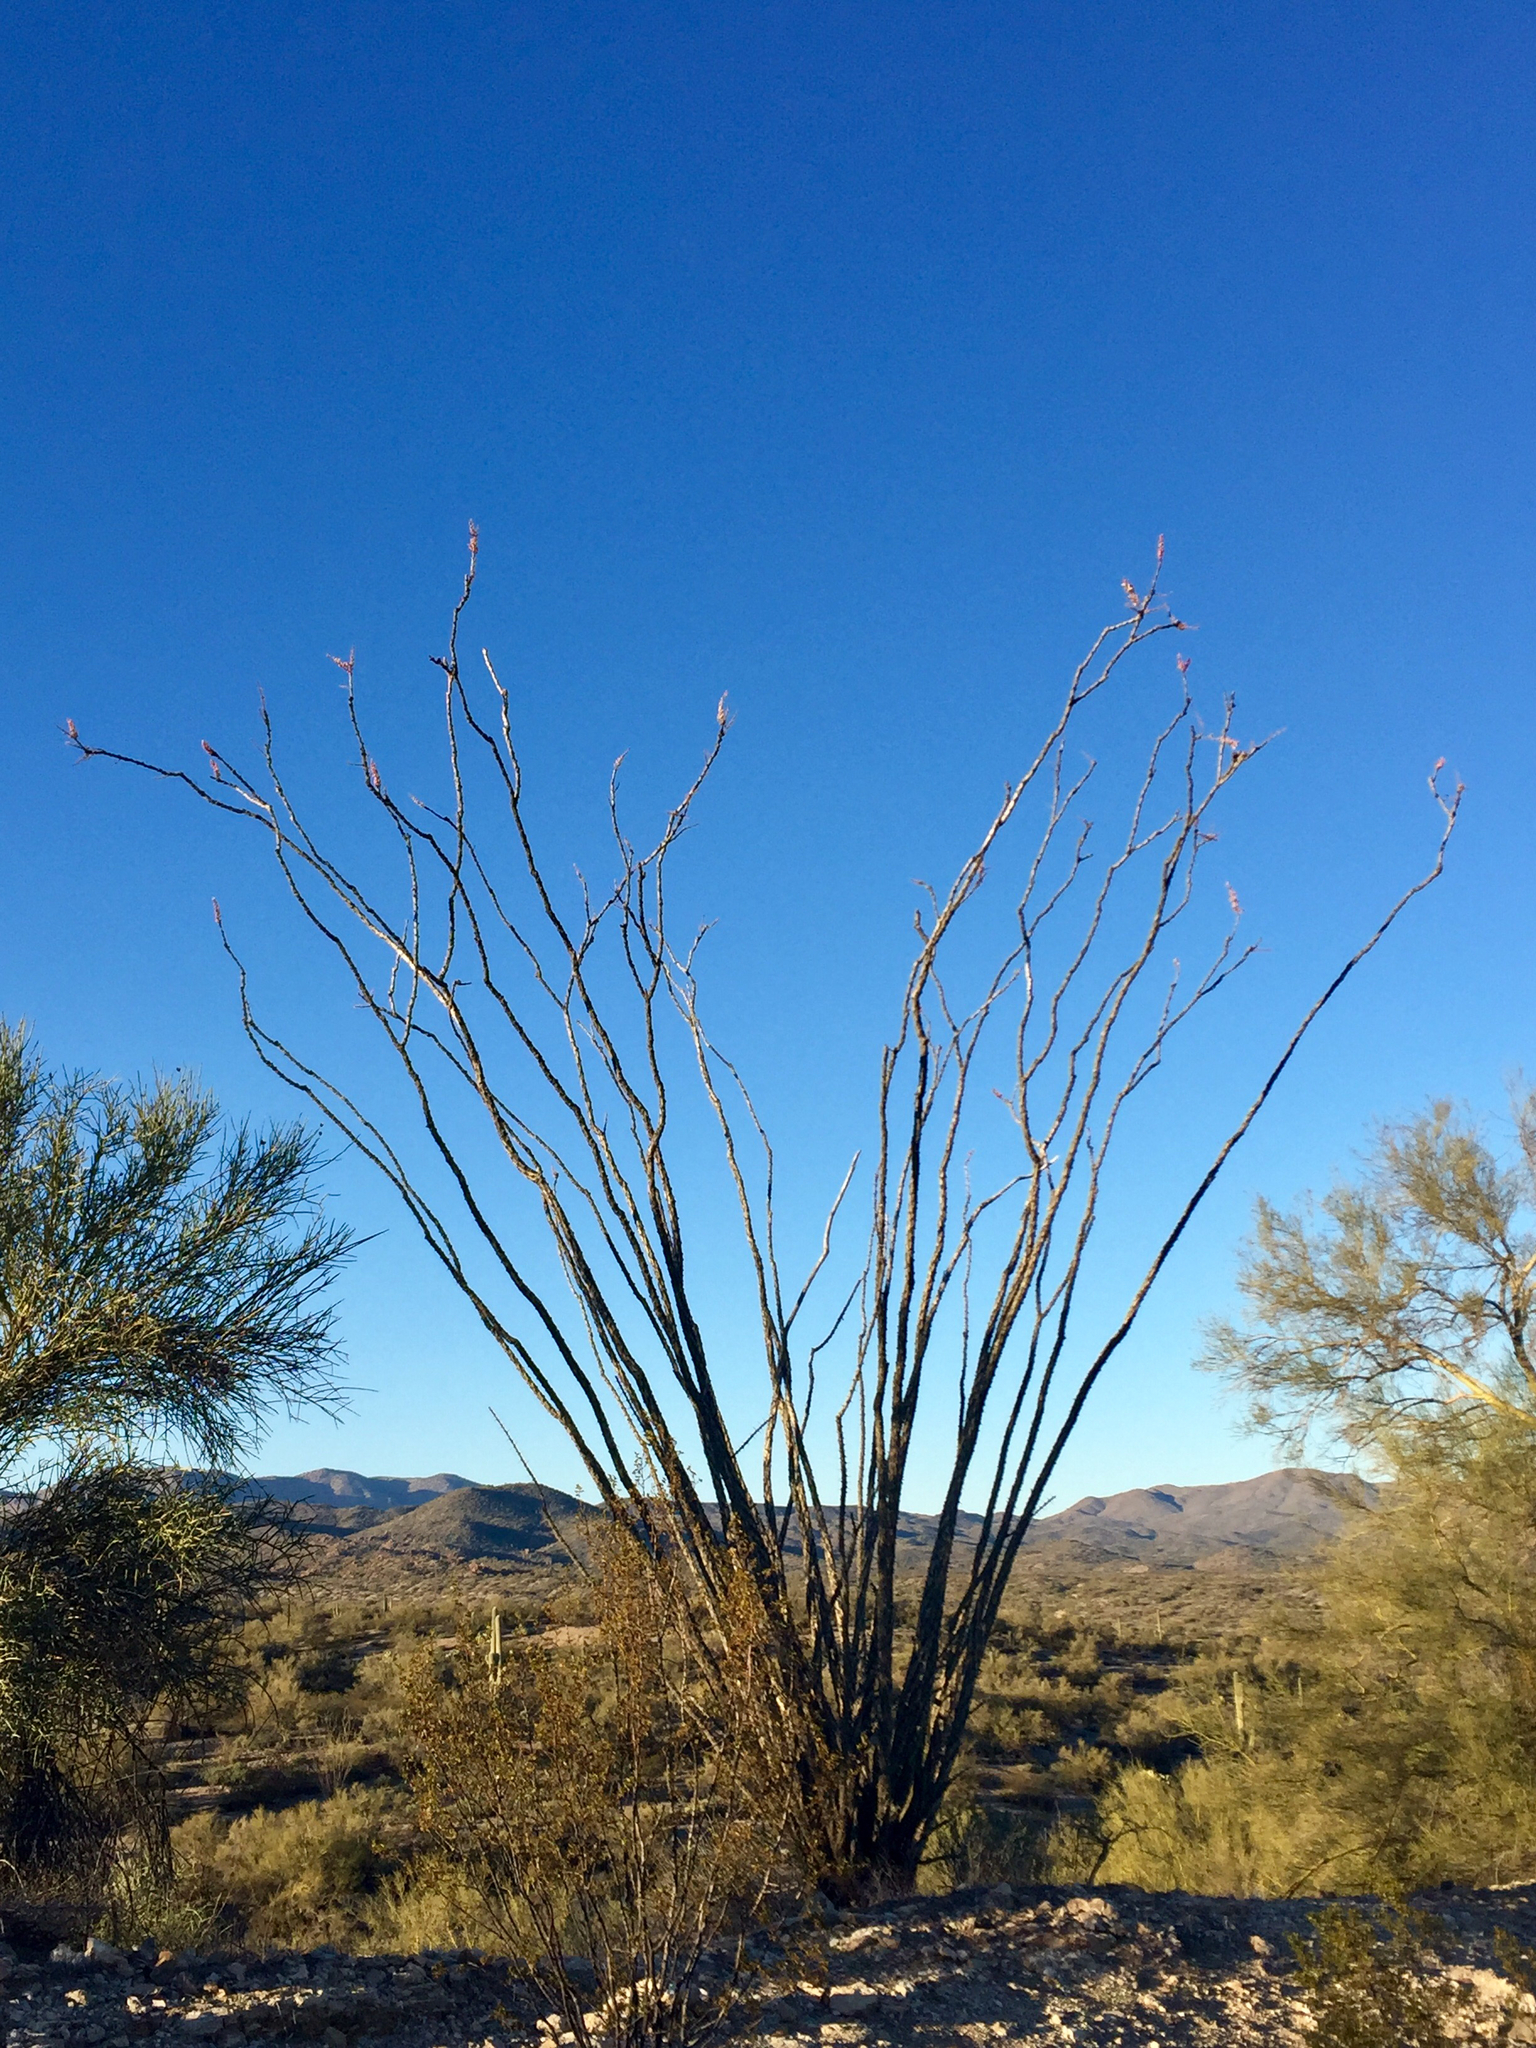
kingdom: Plantae
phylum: Tracheophyta
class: Magnoliopsida
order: Ericales
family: Fouquieriaceae
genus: Fouquieria
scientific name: Fouquieria splendens
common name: Vine-cactus
